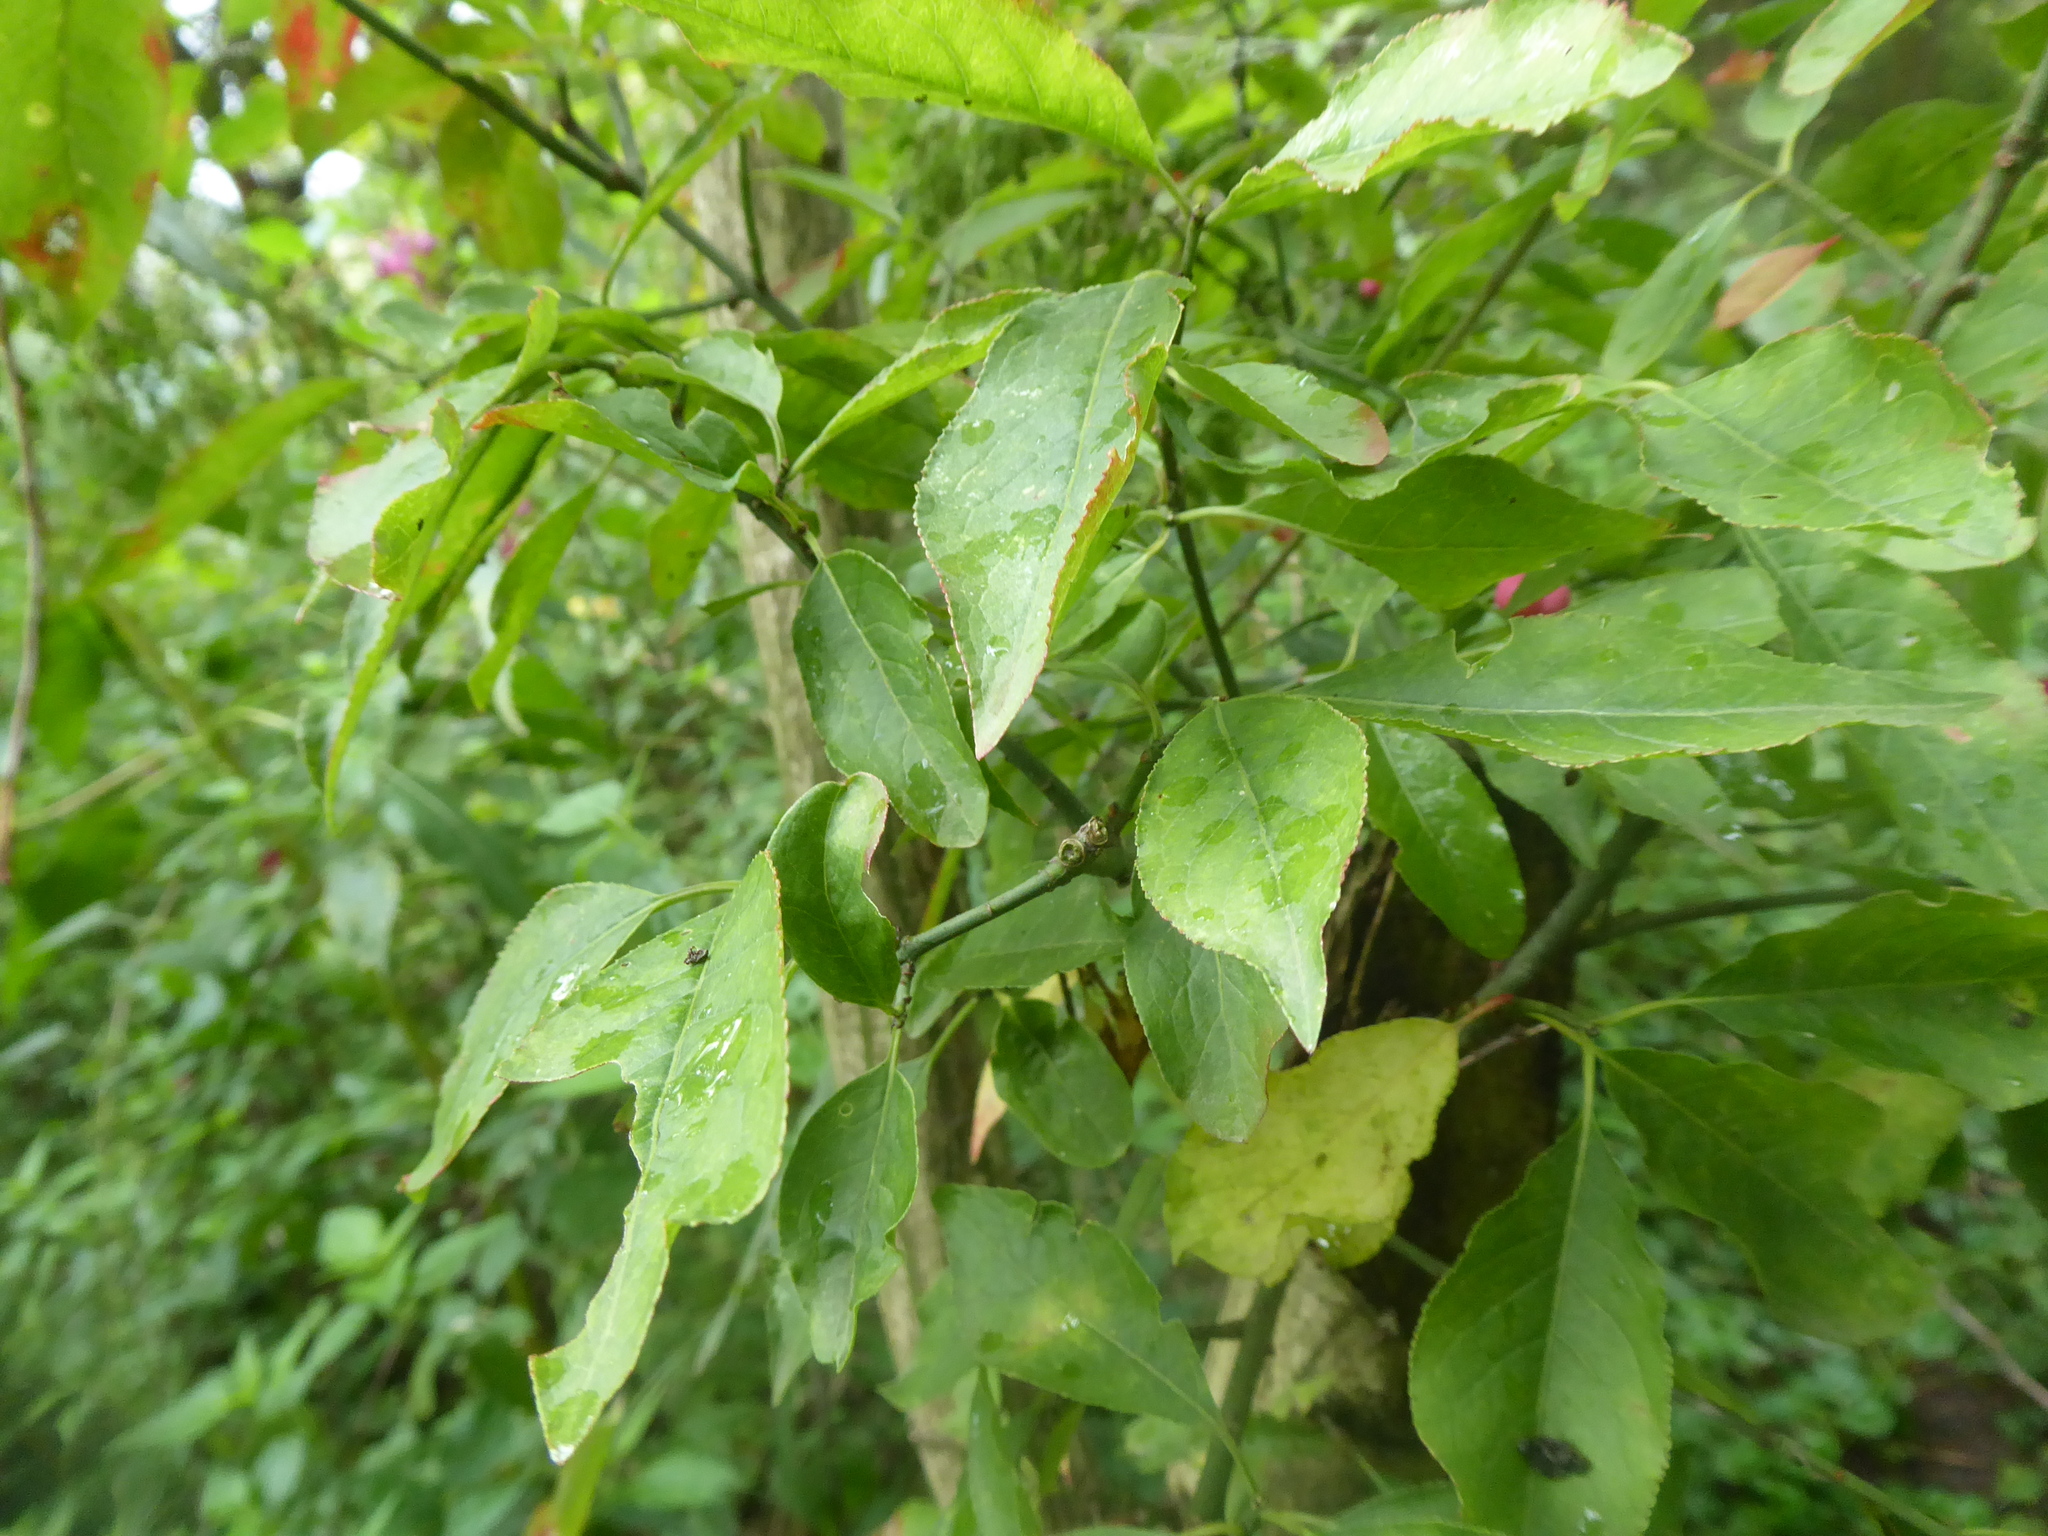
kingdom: Plantae
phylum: Tracheophyta
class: Magnoliopsida
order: Celastrales
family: Celastraceae
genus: Euonymus
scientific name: Euonymus europaeus
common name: Spindle
